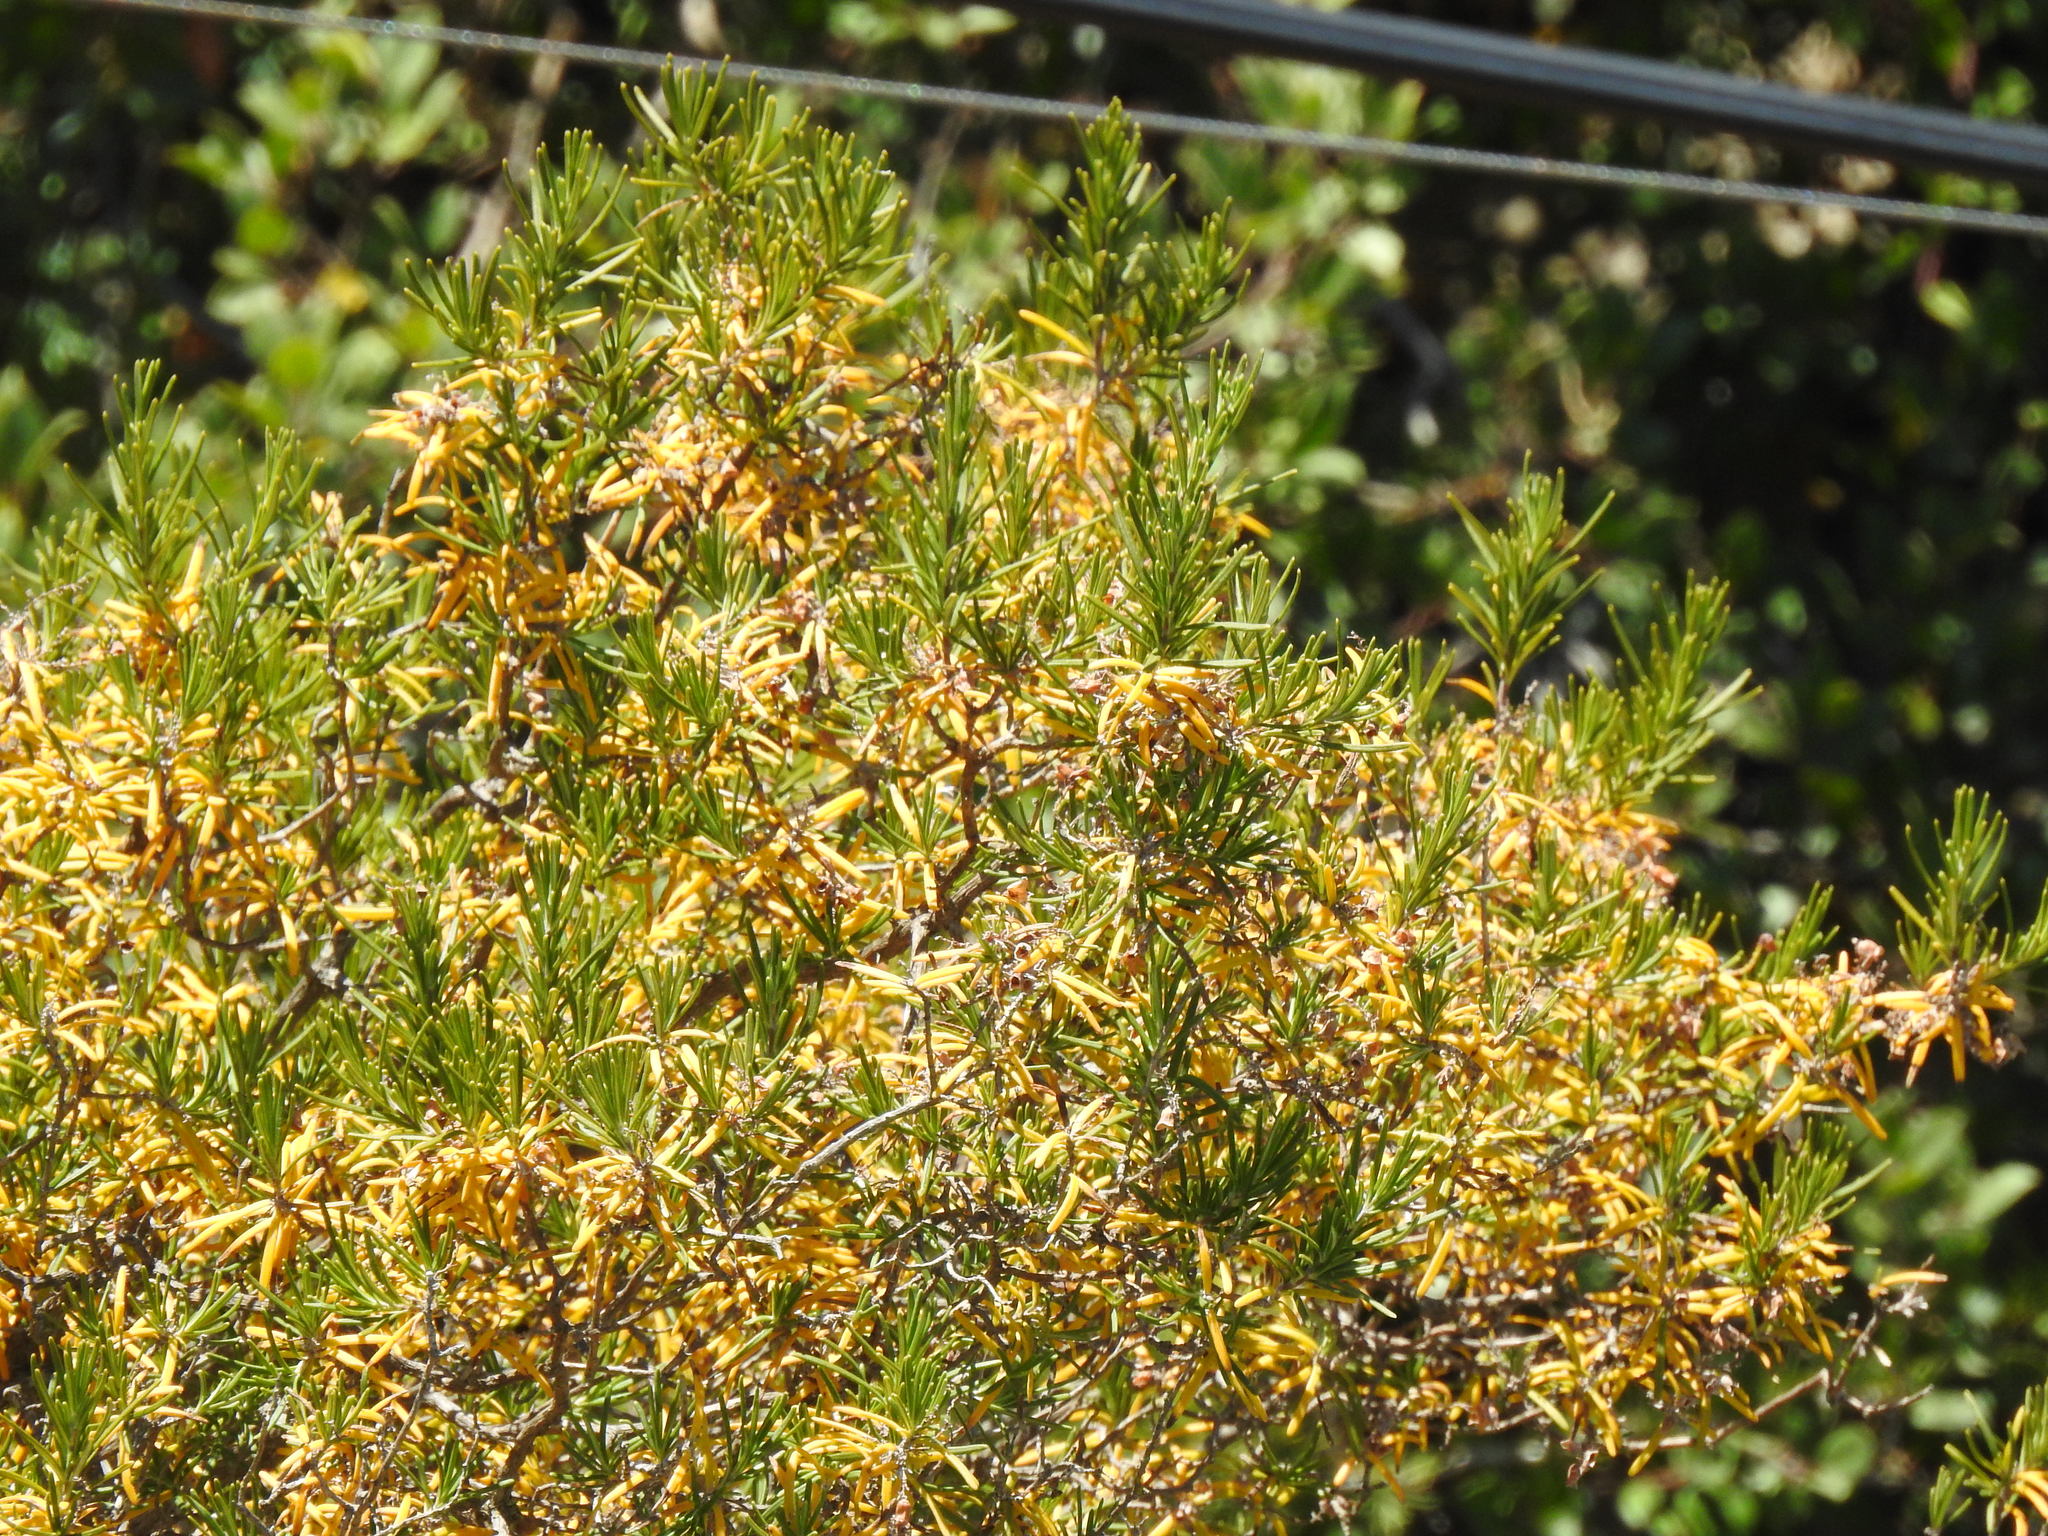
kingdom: Plantae
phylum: Tracheophyta
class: Magnoliopsida
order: Lamiales
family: Lamiaceae
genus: Salvia
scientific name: Salvia rosmarinus
